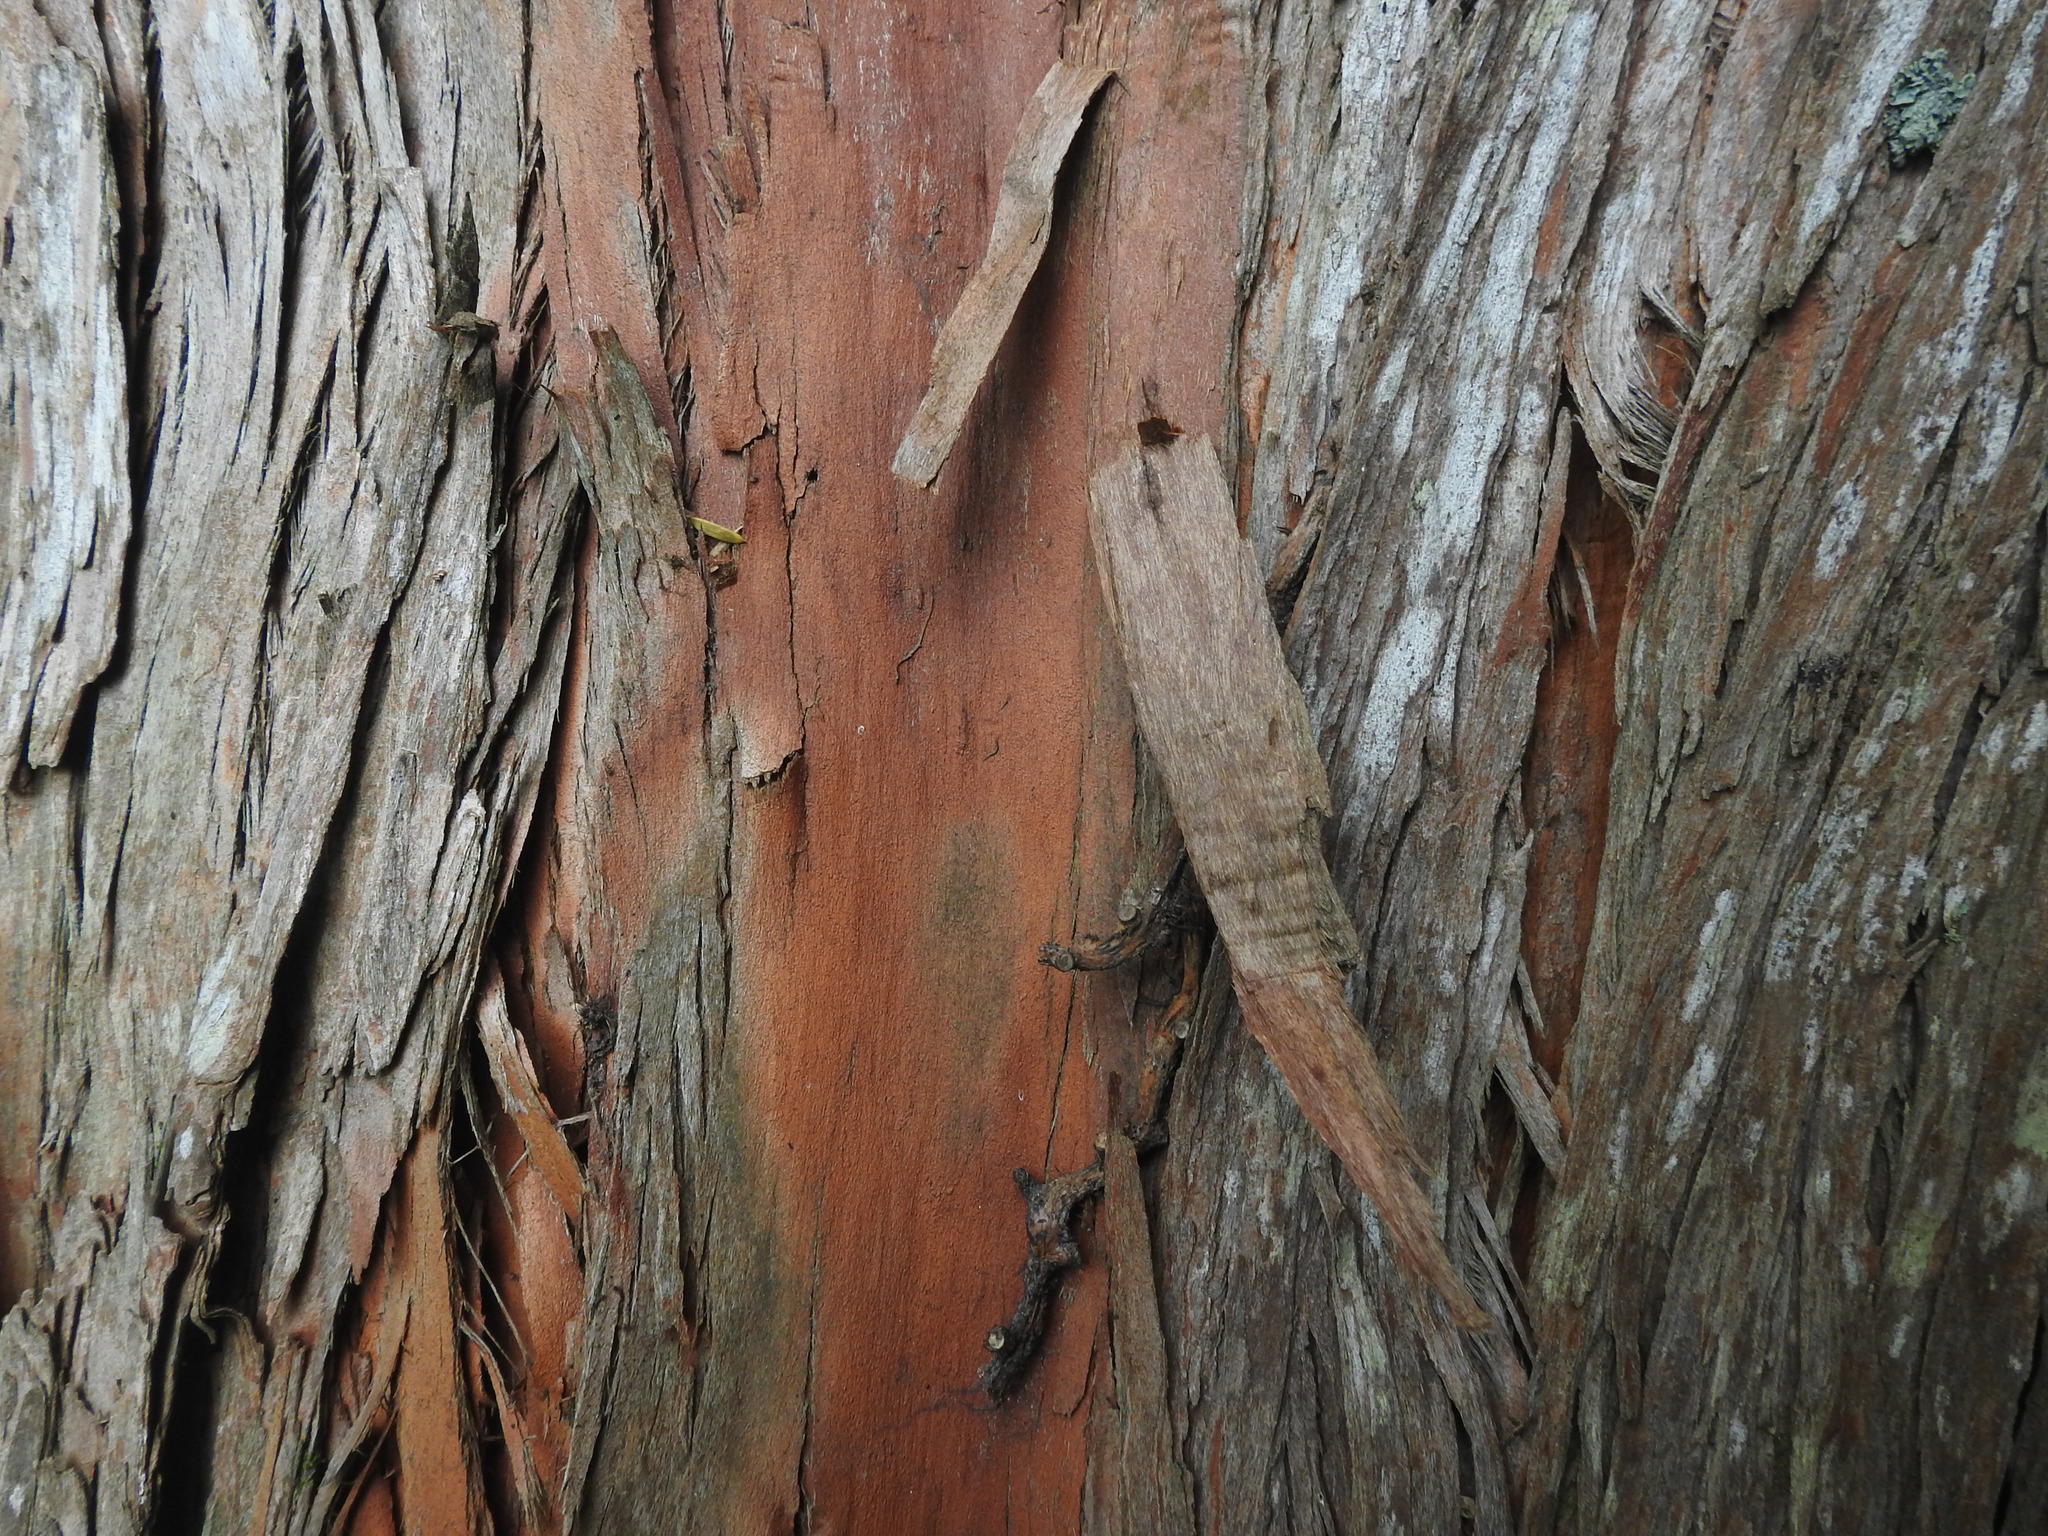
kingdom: Plantae
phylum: Tracheophyta
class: Pinopsida
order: Pinales
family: Podocarpaceae
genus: Podocarpus
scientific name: Podocarpus totara
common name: Totara
